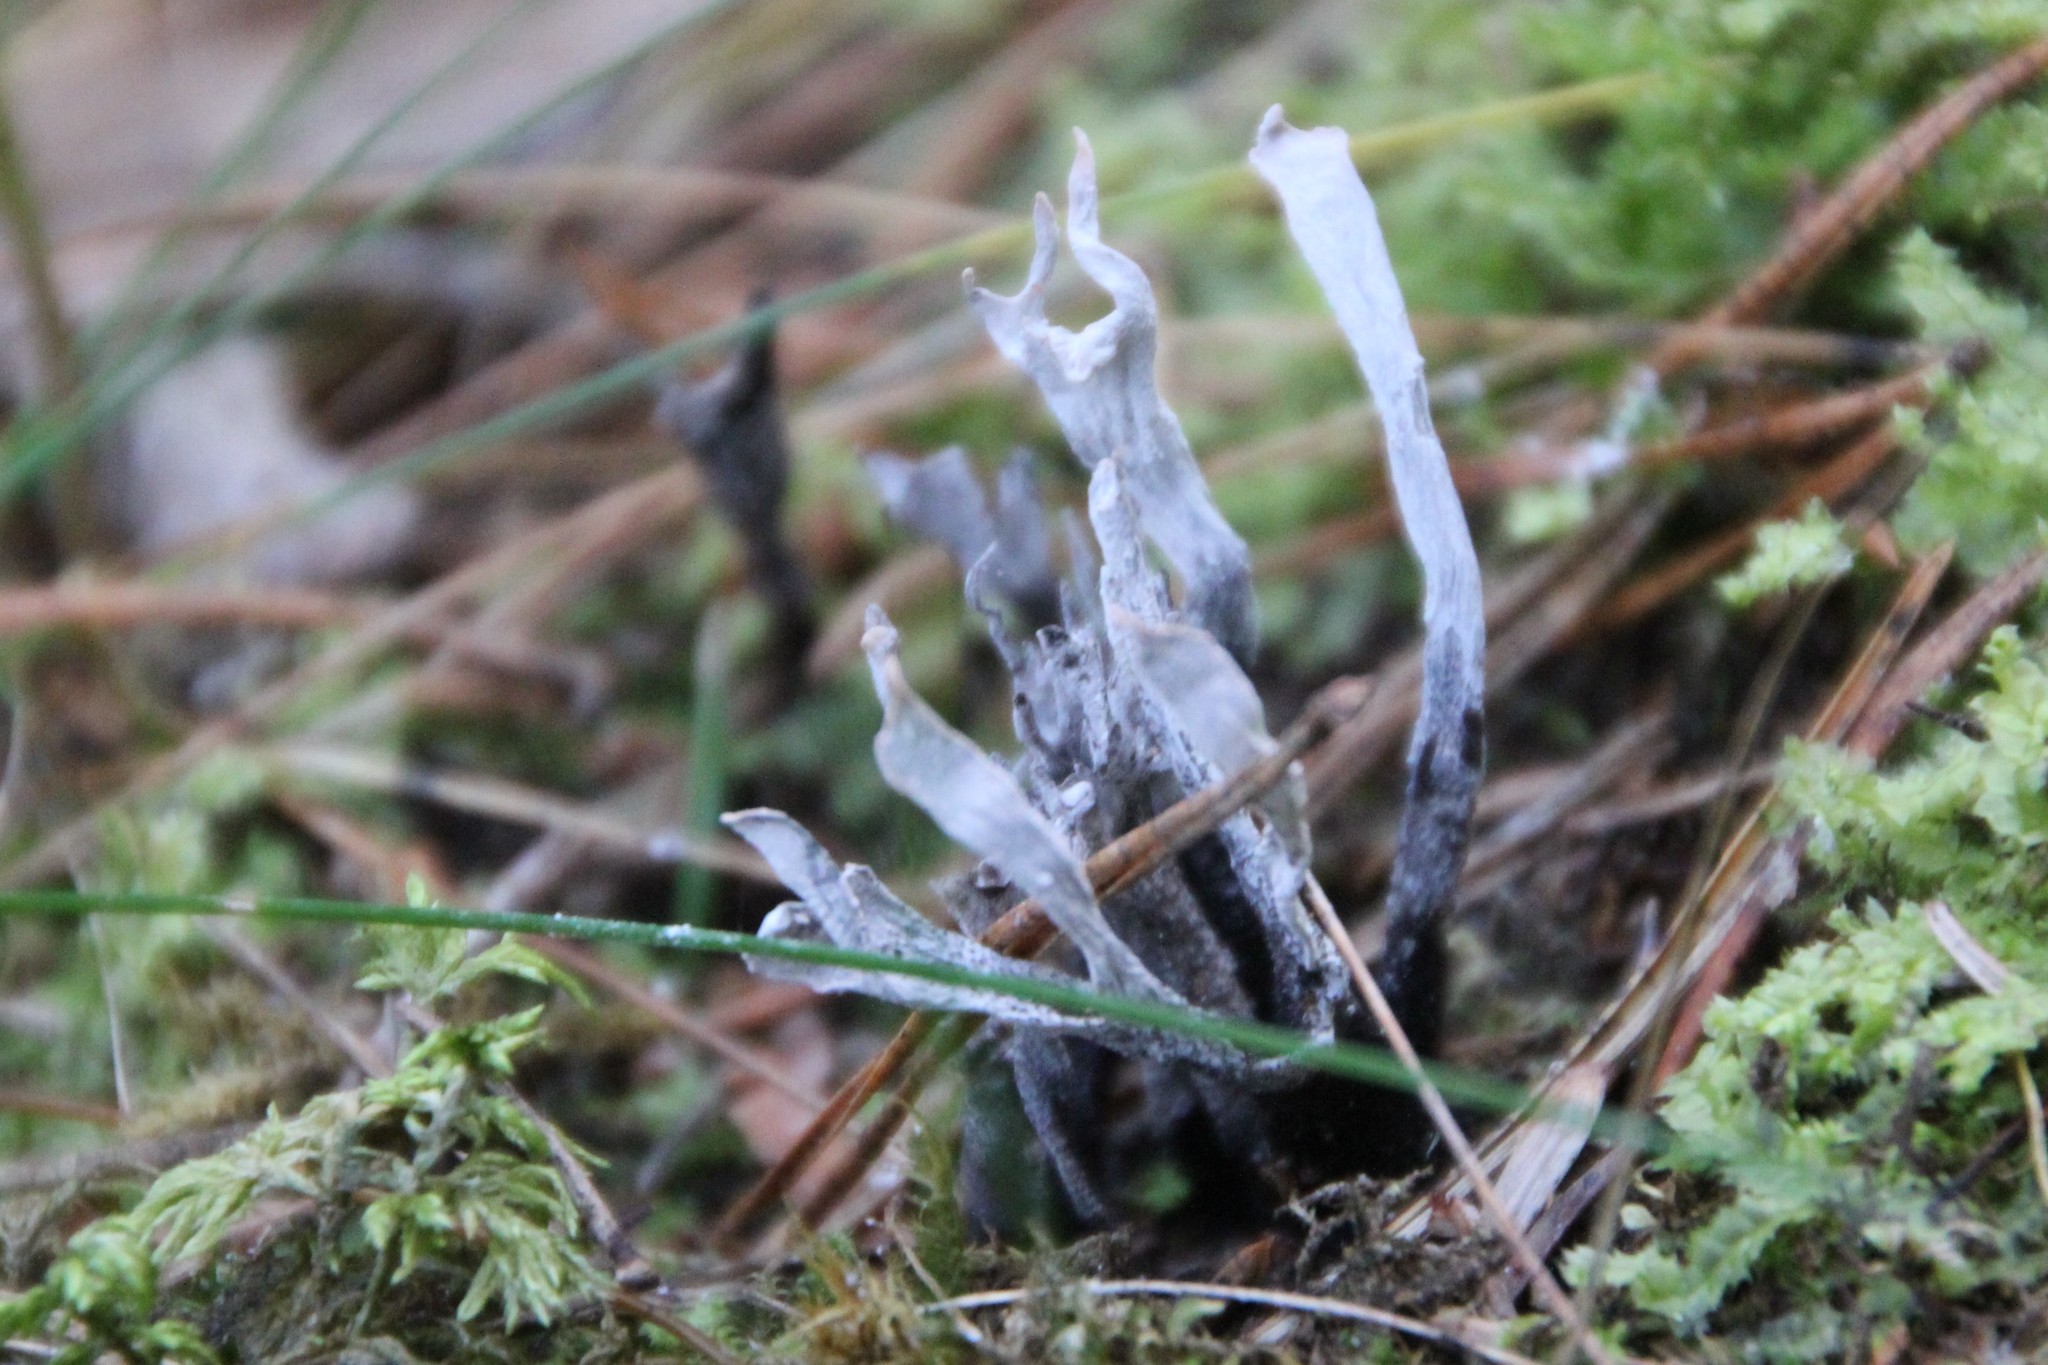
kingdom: Fungi
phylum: Ascomycota
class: Sordariomycetes
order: Xylariales
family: Xylariaceae
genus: Xylaria
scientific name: Xylaria hypoxylon
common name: Candle-snuff fungus
